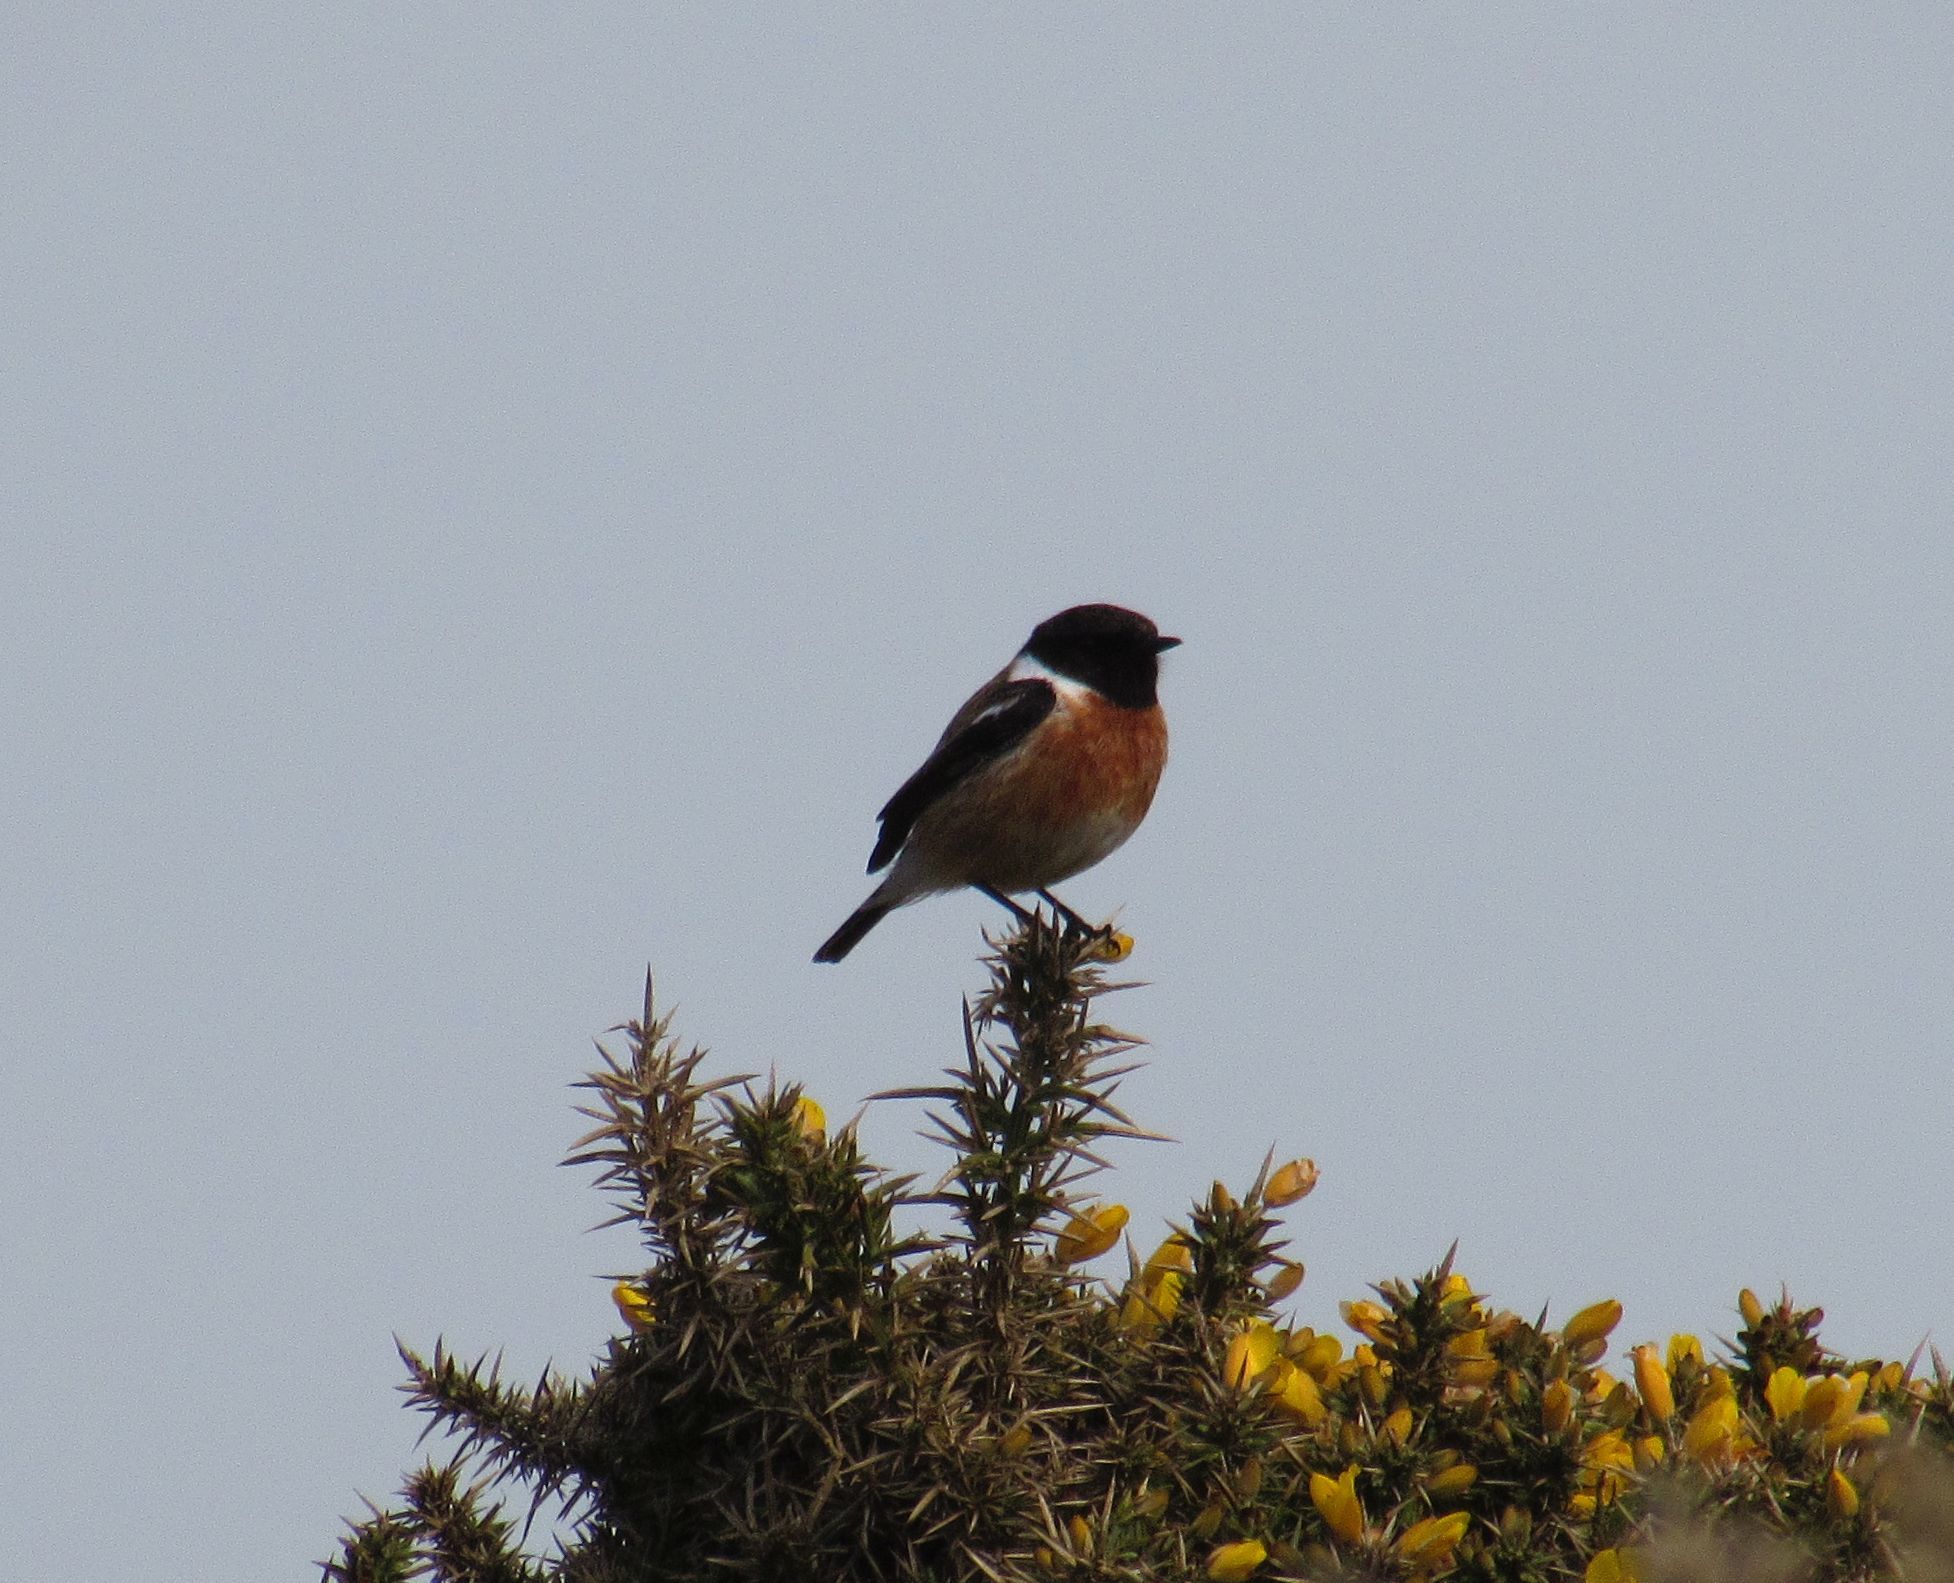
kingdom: Animalia
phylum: Chordata
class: Aves
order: Passeriformes
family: Muscicapidae
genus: Saxicola
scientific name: Saxicola rubicola
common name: European stonechat
